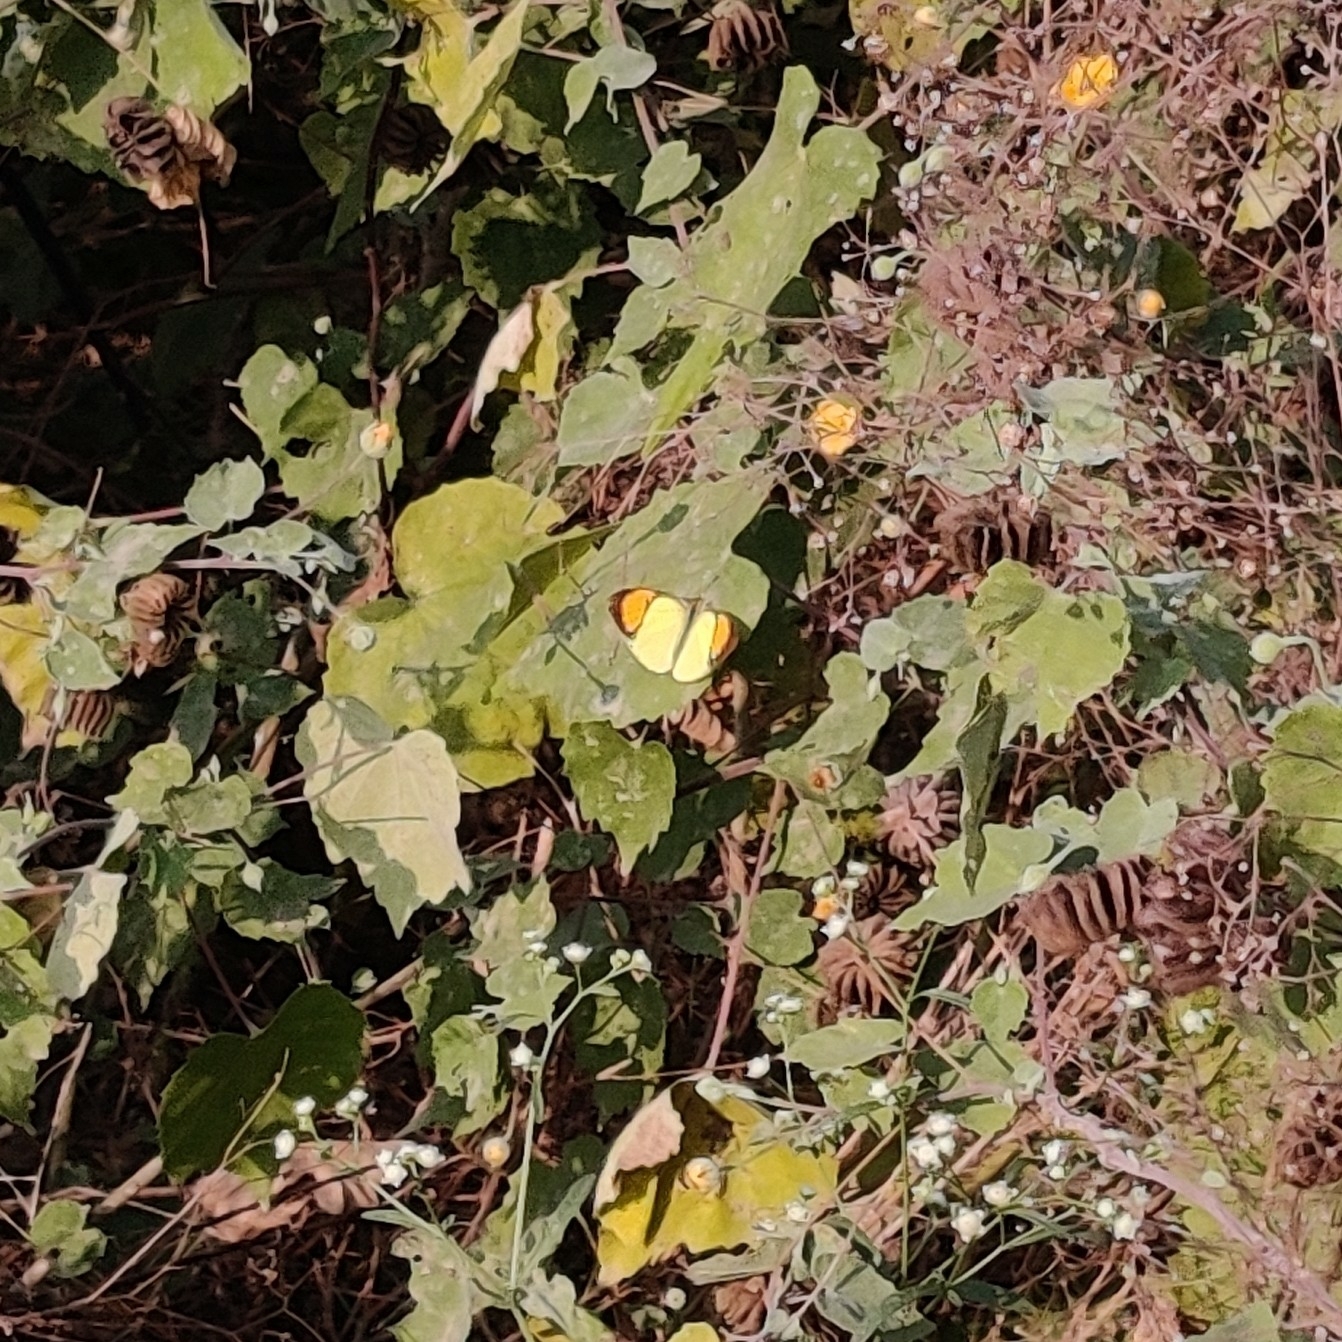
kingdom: Animalia
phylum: Arthropoda
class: Insecta
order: Lepidoptera
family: Pieridae
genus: Ixias
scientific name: Ixias pyrene
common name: Yellow orange tip
